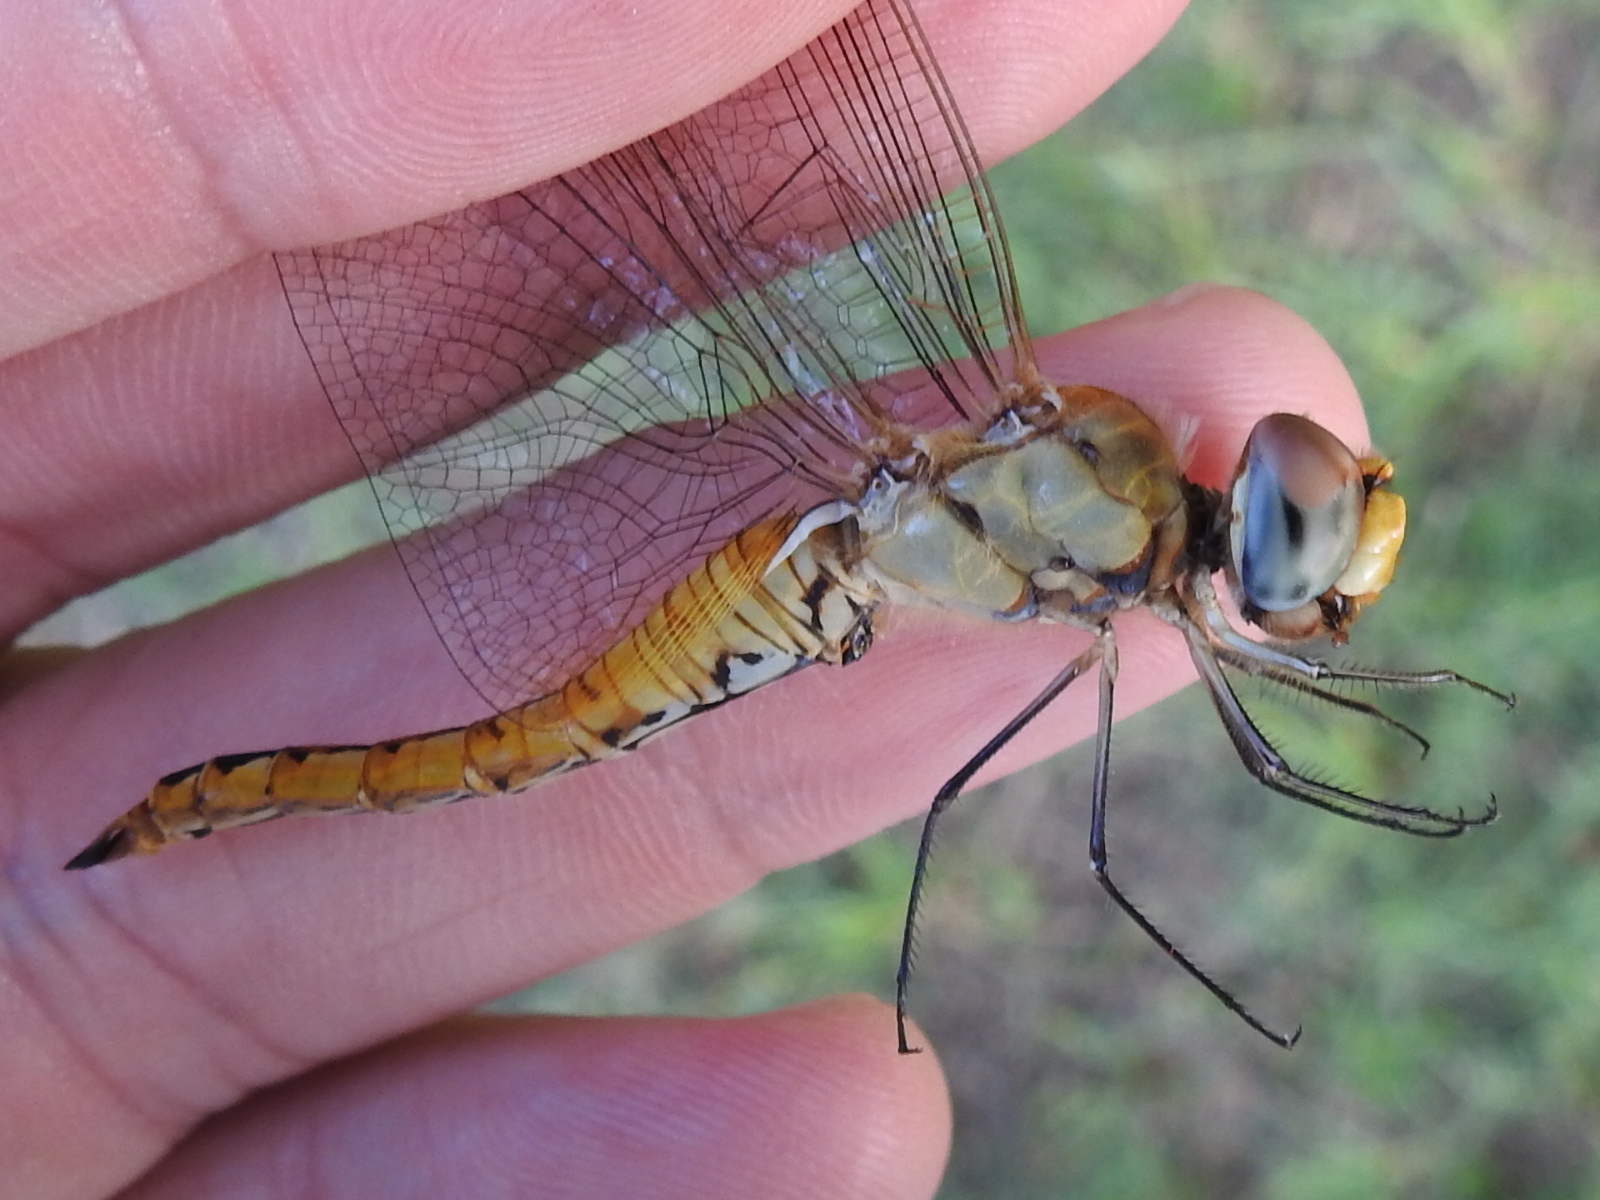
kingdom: Animalia
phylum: Arthropoda
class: Insecta
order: Odonata
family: Libellulidae
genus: Pantala
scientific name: Pantala flavescens
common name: Wandering glider
